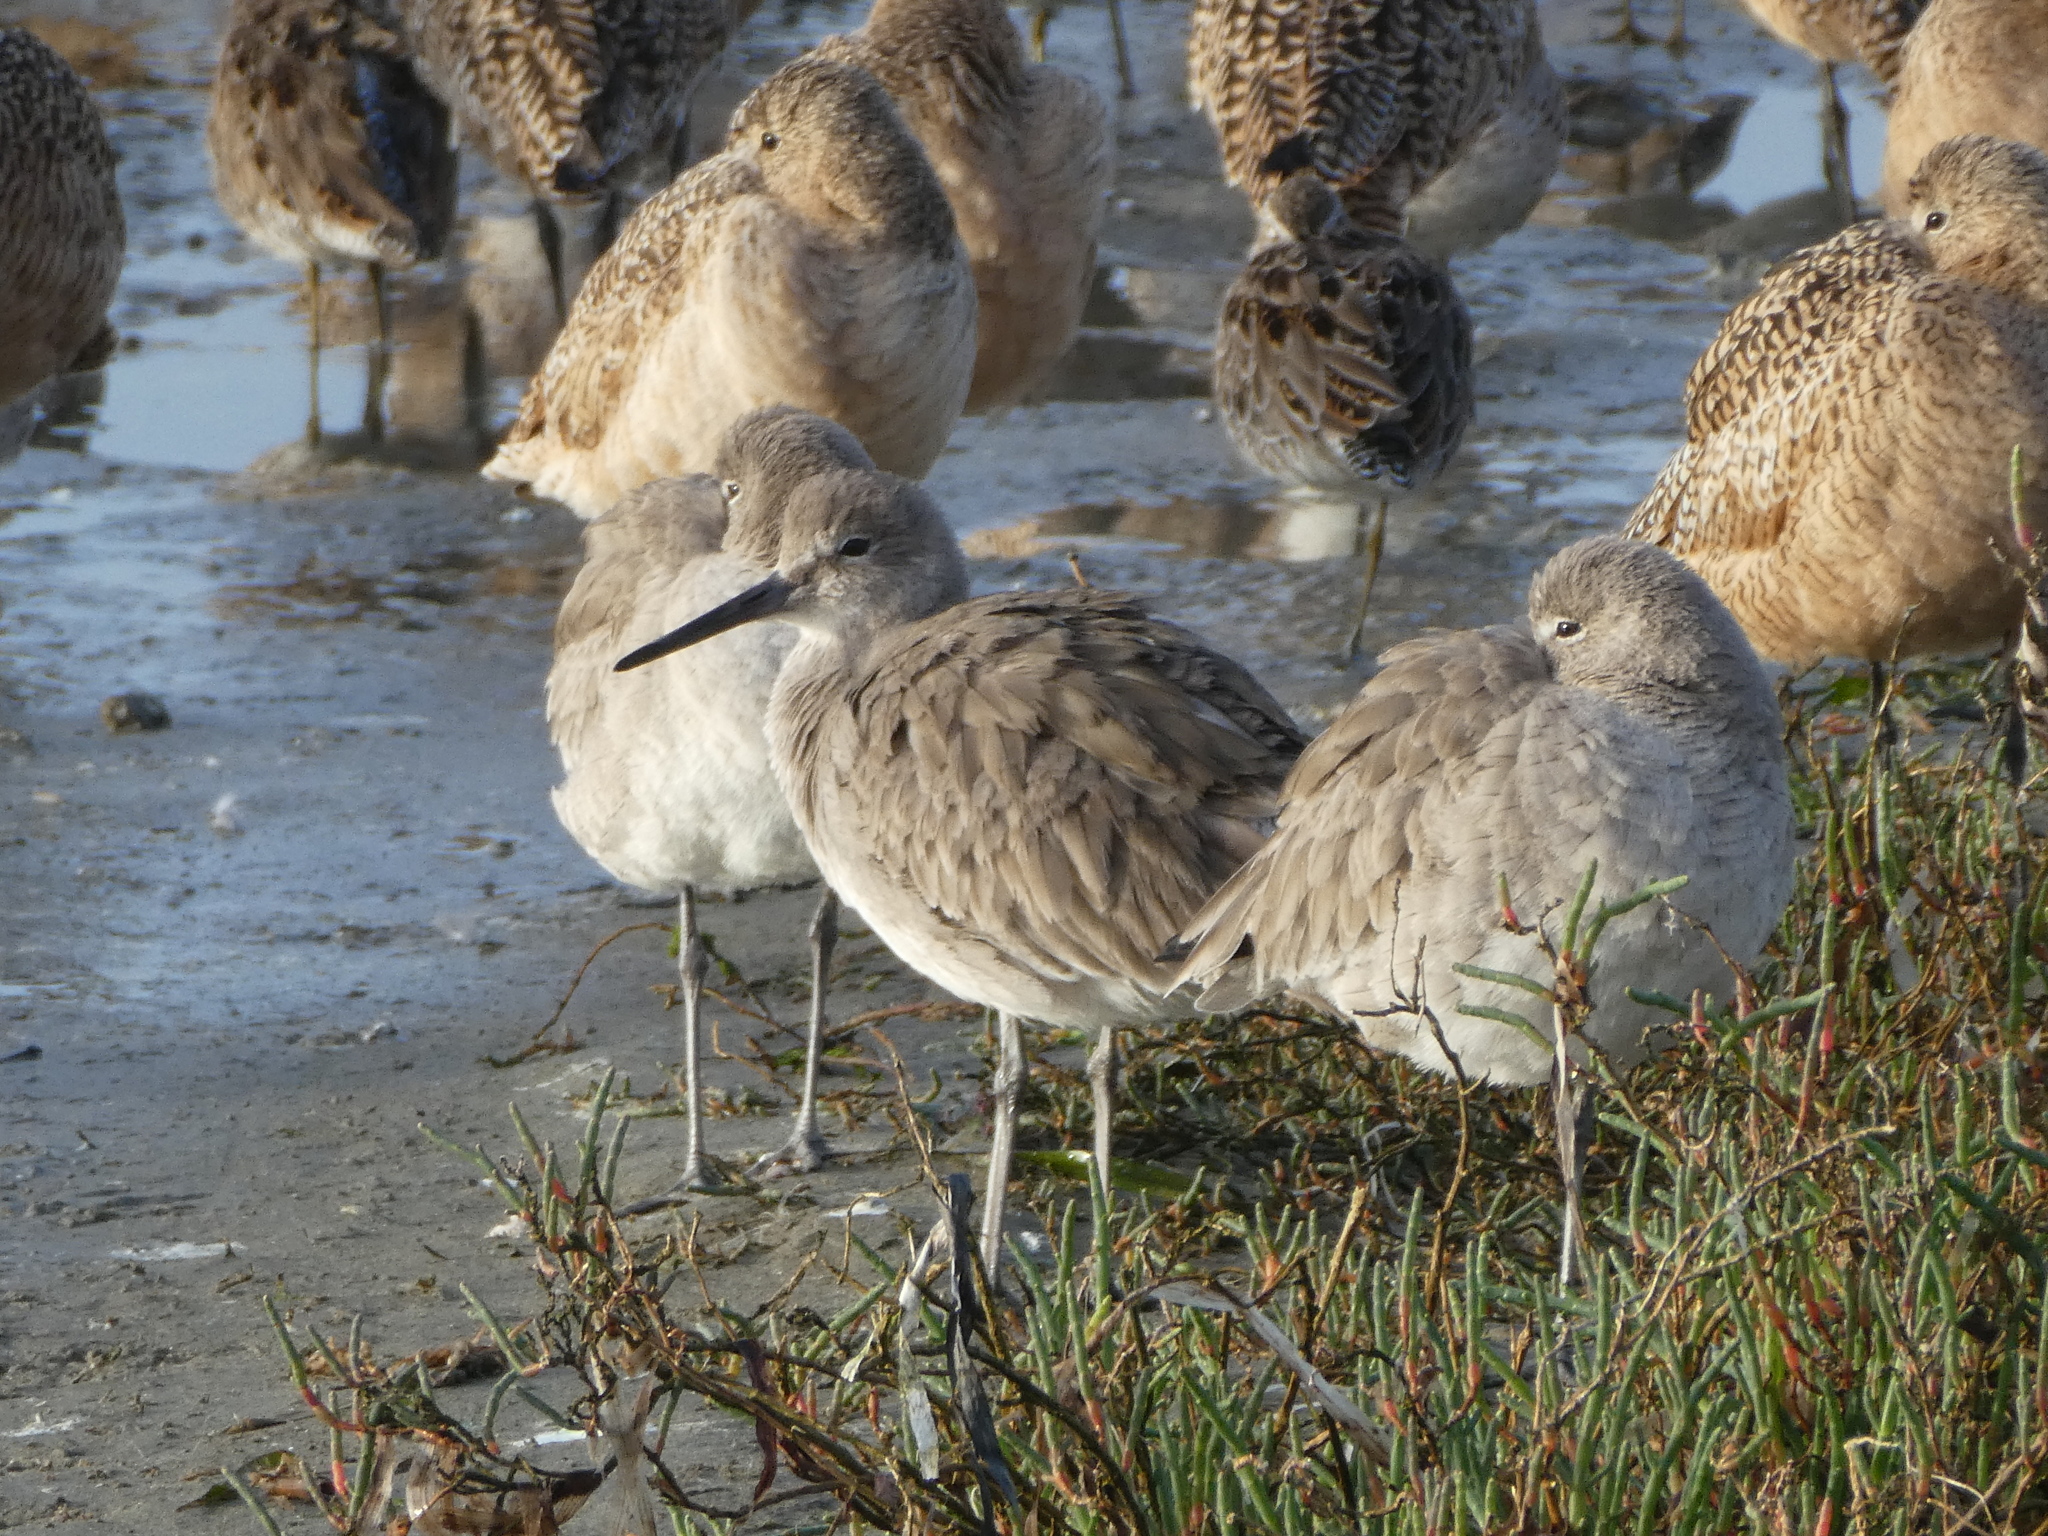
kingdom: Animalia
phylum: Chordata
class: Aves
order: Charadriiformes
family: Scolopacidae
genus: Tringa
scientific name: Tringa semipalmata
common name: Willet
